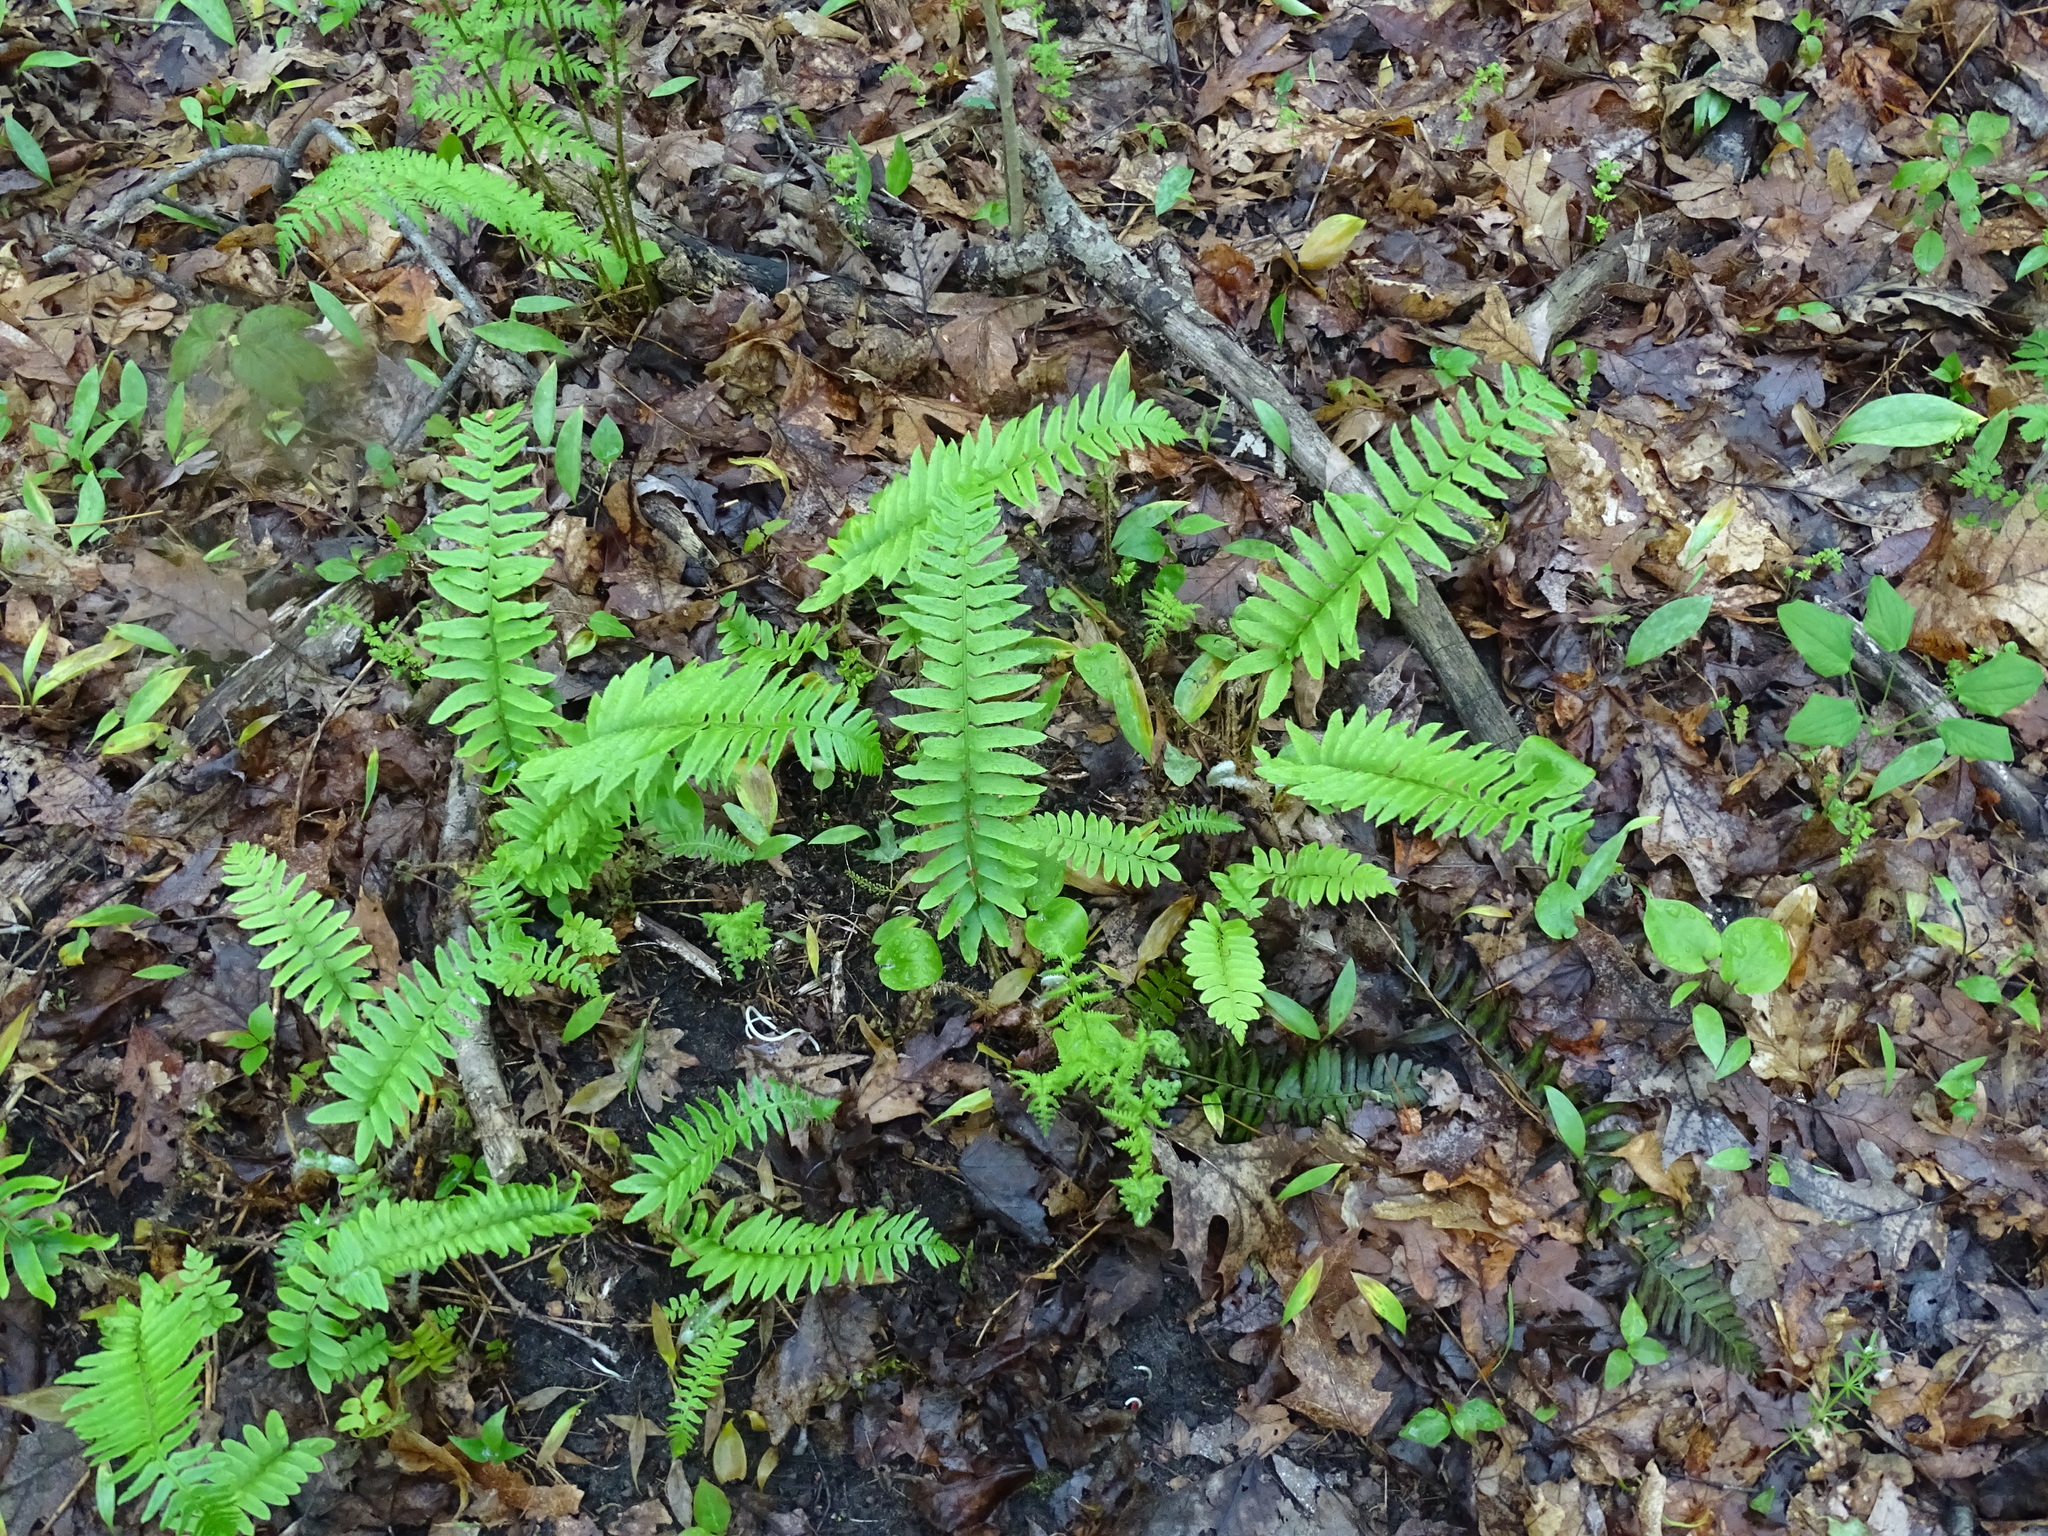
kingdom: Plantae
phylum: Tracheophyta
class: Polypodiopsida
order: Polypodiales
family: Dryopteridaceae
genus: Polystichum
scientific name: Polystichum acrostichoides
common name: Christmas fern
